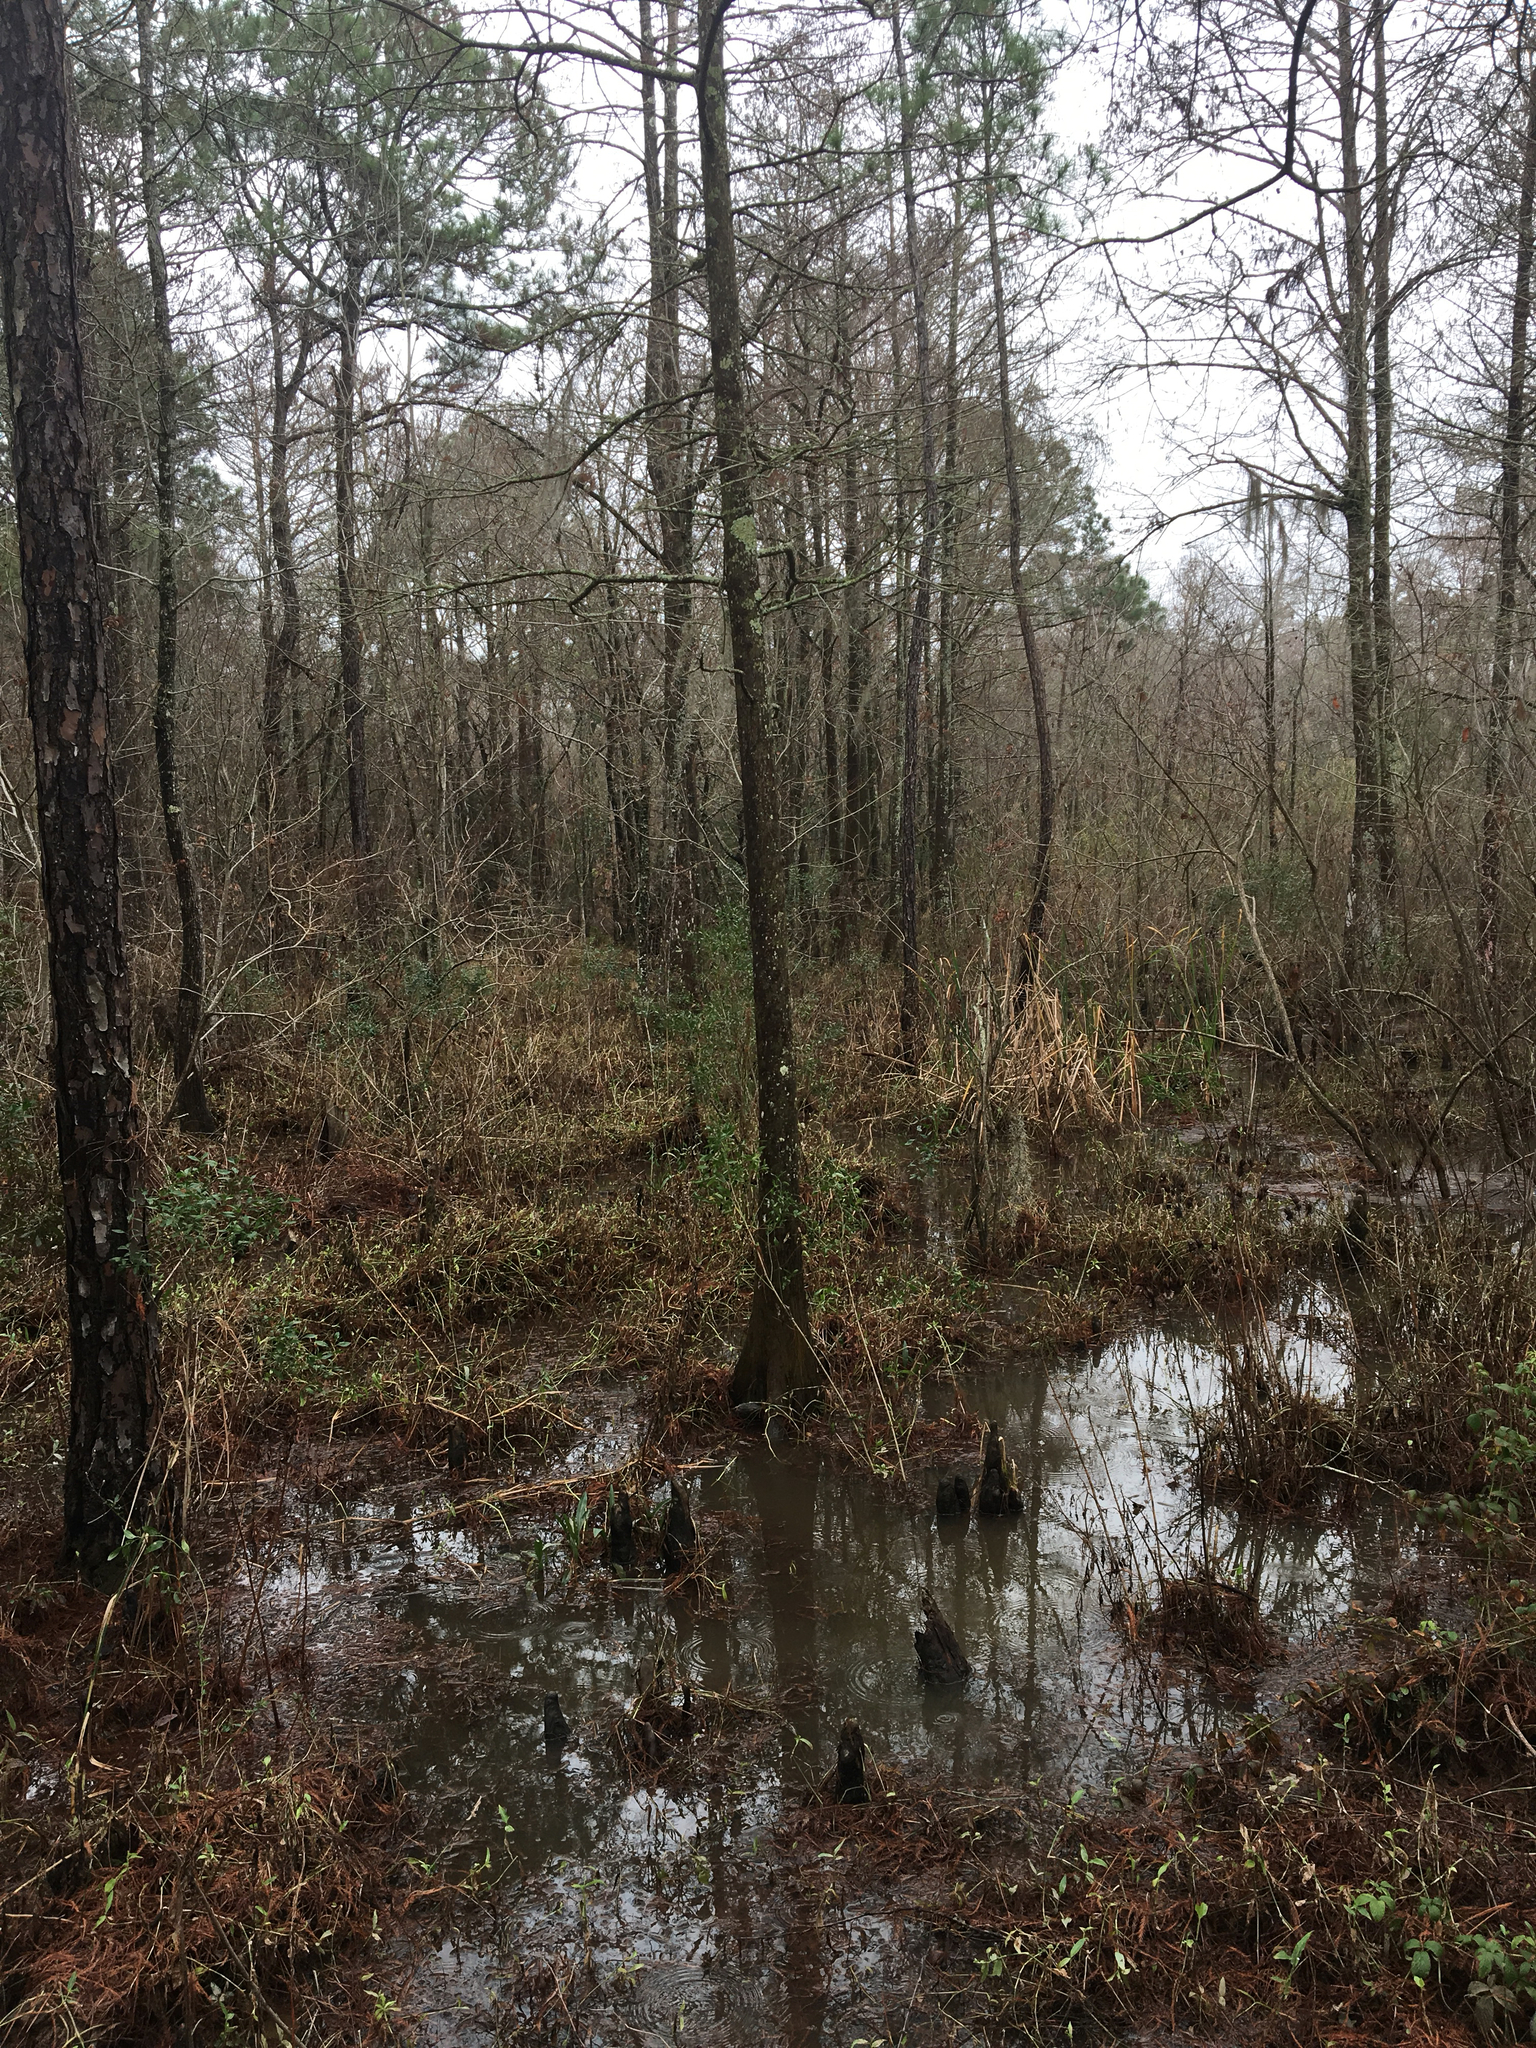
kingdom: Plantae
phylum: Tracheophyta
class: Pinopsida
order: Pinales
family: Cupressaceae
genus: Taxodium
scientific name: Taxodium distichum
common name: Bald cypress
